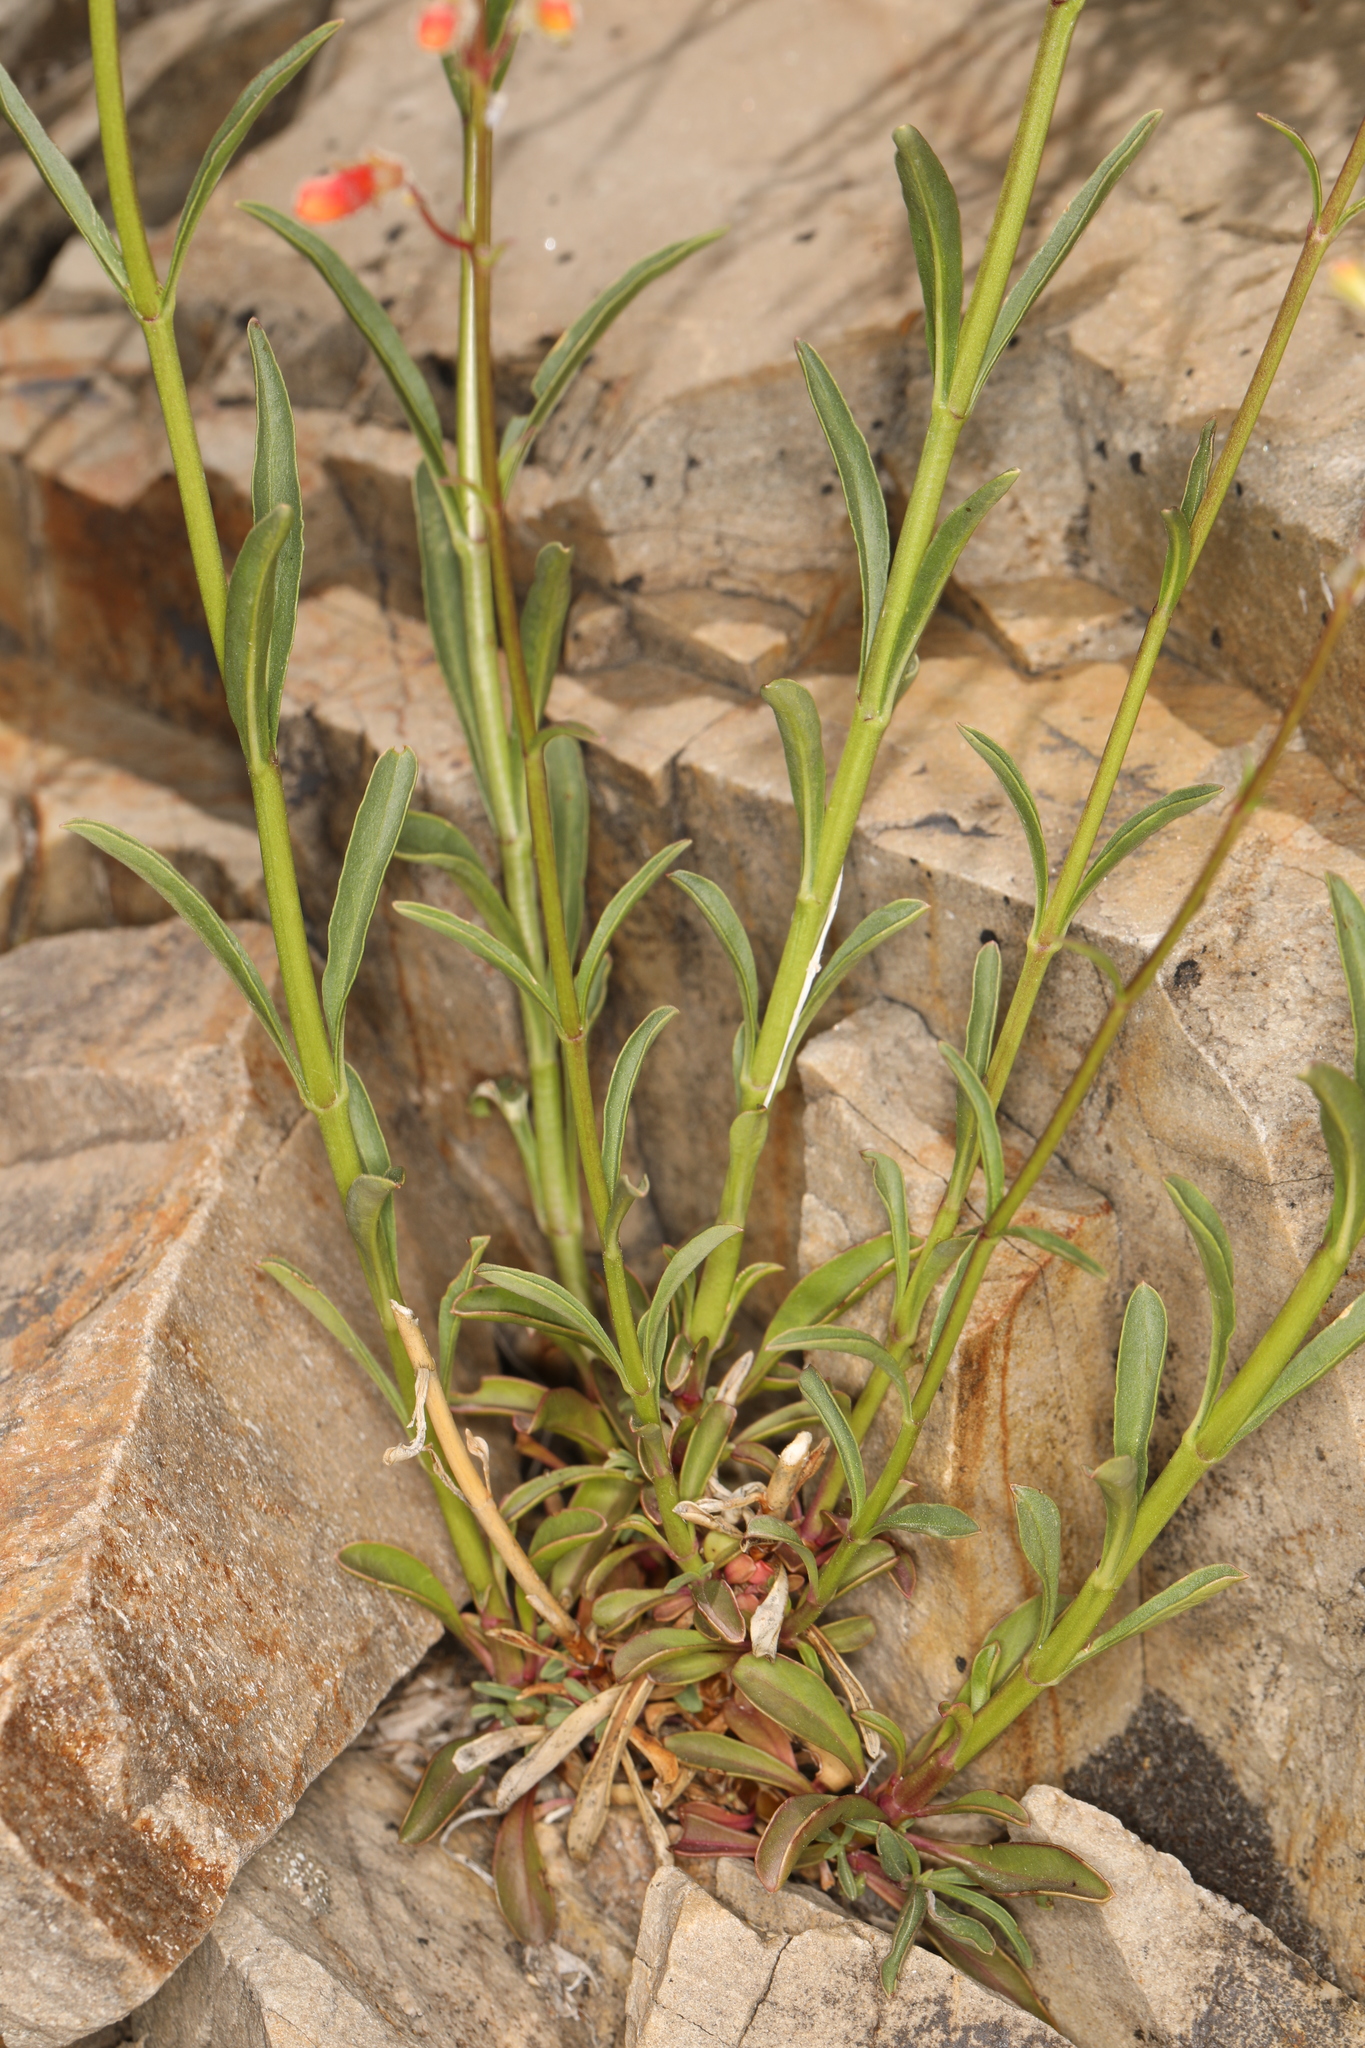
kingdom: Plantae
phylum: Tracheophyta
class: Magnoliopsida
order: Lamiales
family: Plantaginaceae
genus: Penstemon
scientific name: Penstemon rostriflorus
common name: Bridges's penstemon
